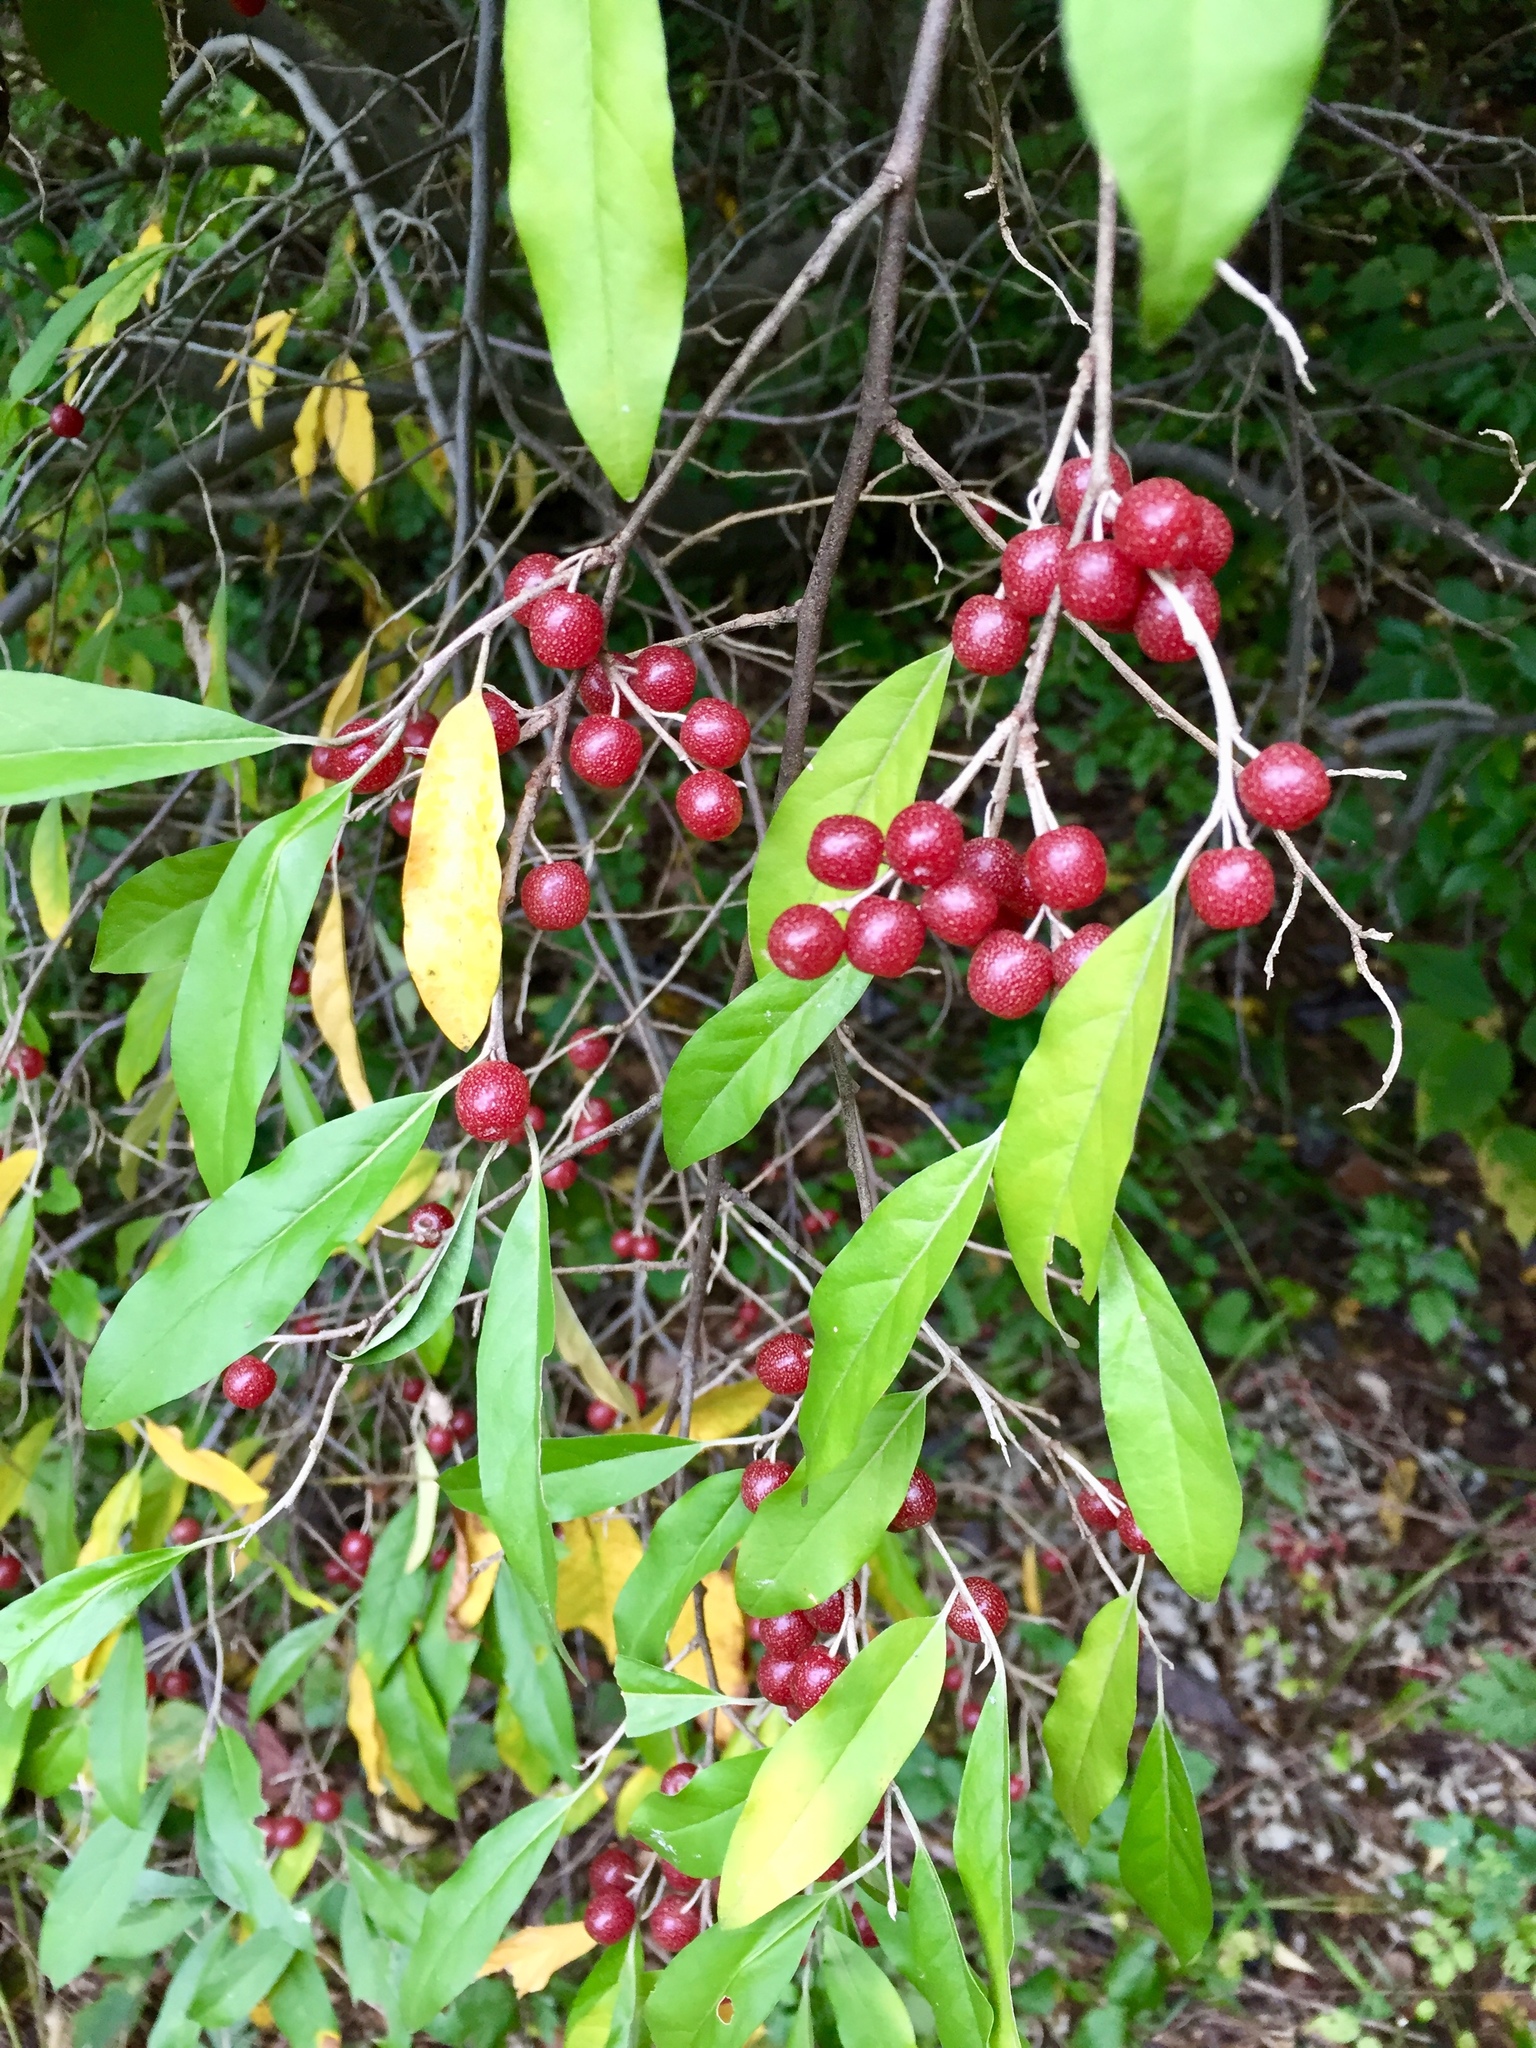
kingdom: Plantae
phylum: Tracheophyta
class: Magnoliopsida
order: Rosales
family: Elaeagnaceae
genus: Elaeagnus
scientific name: Elaeagnus umbellata
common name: Autumn olive
